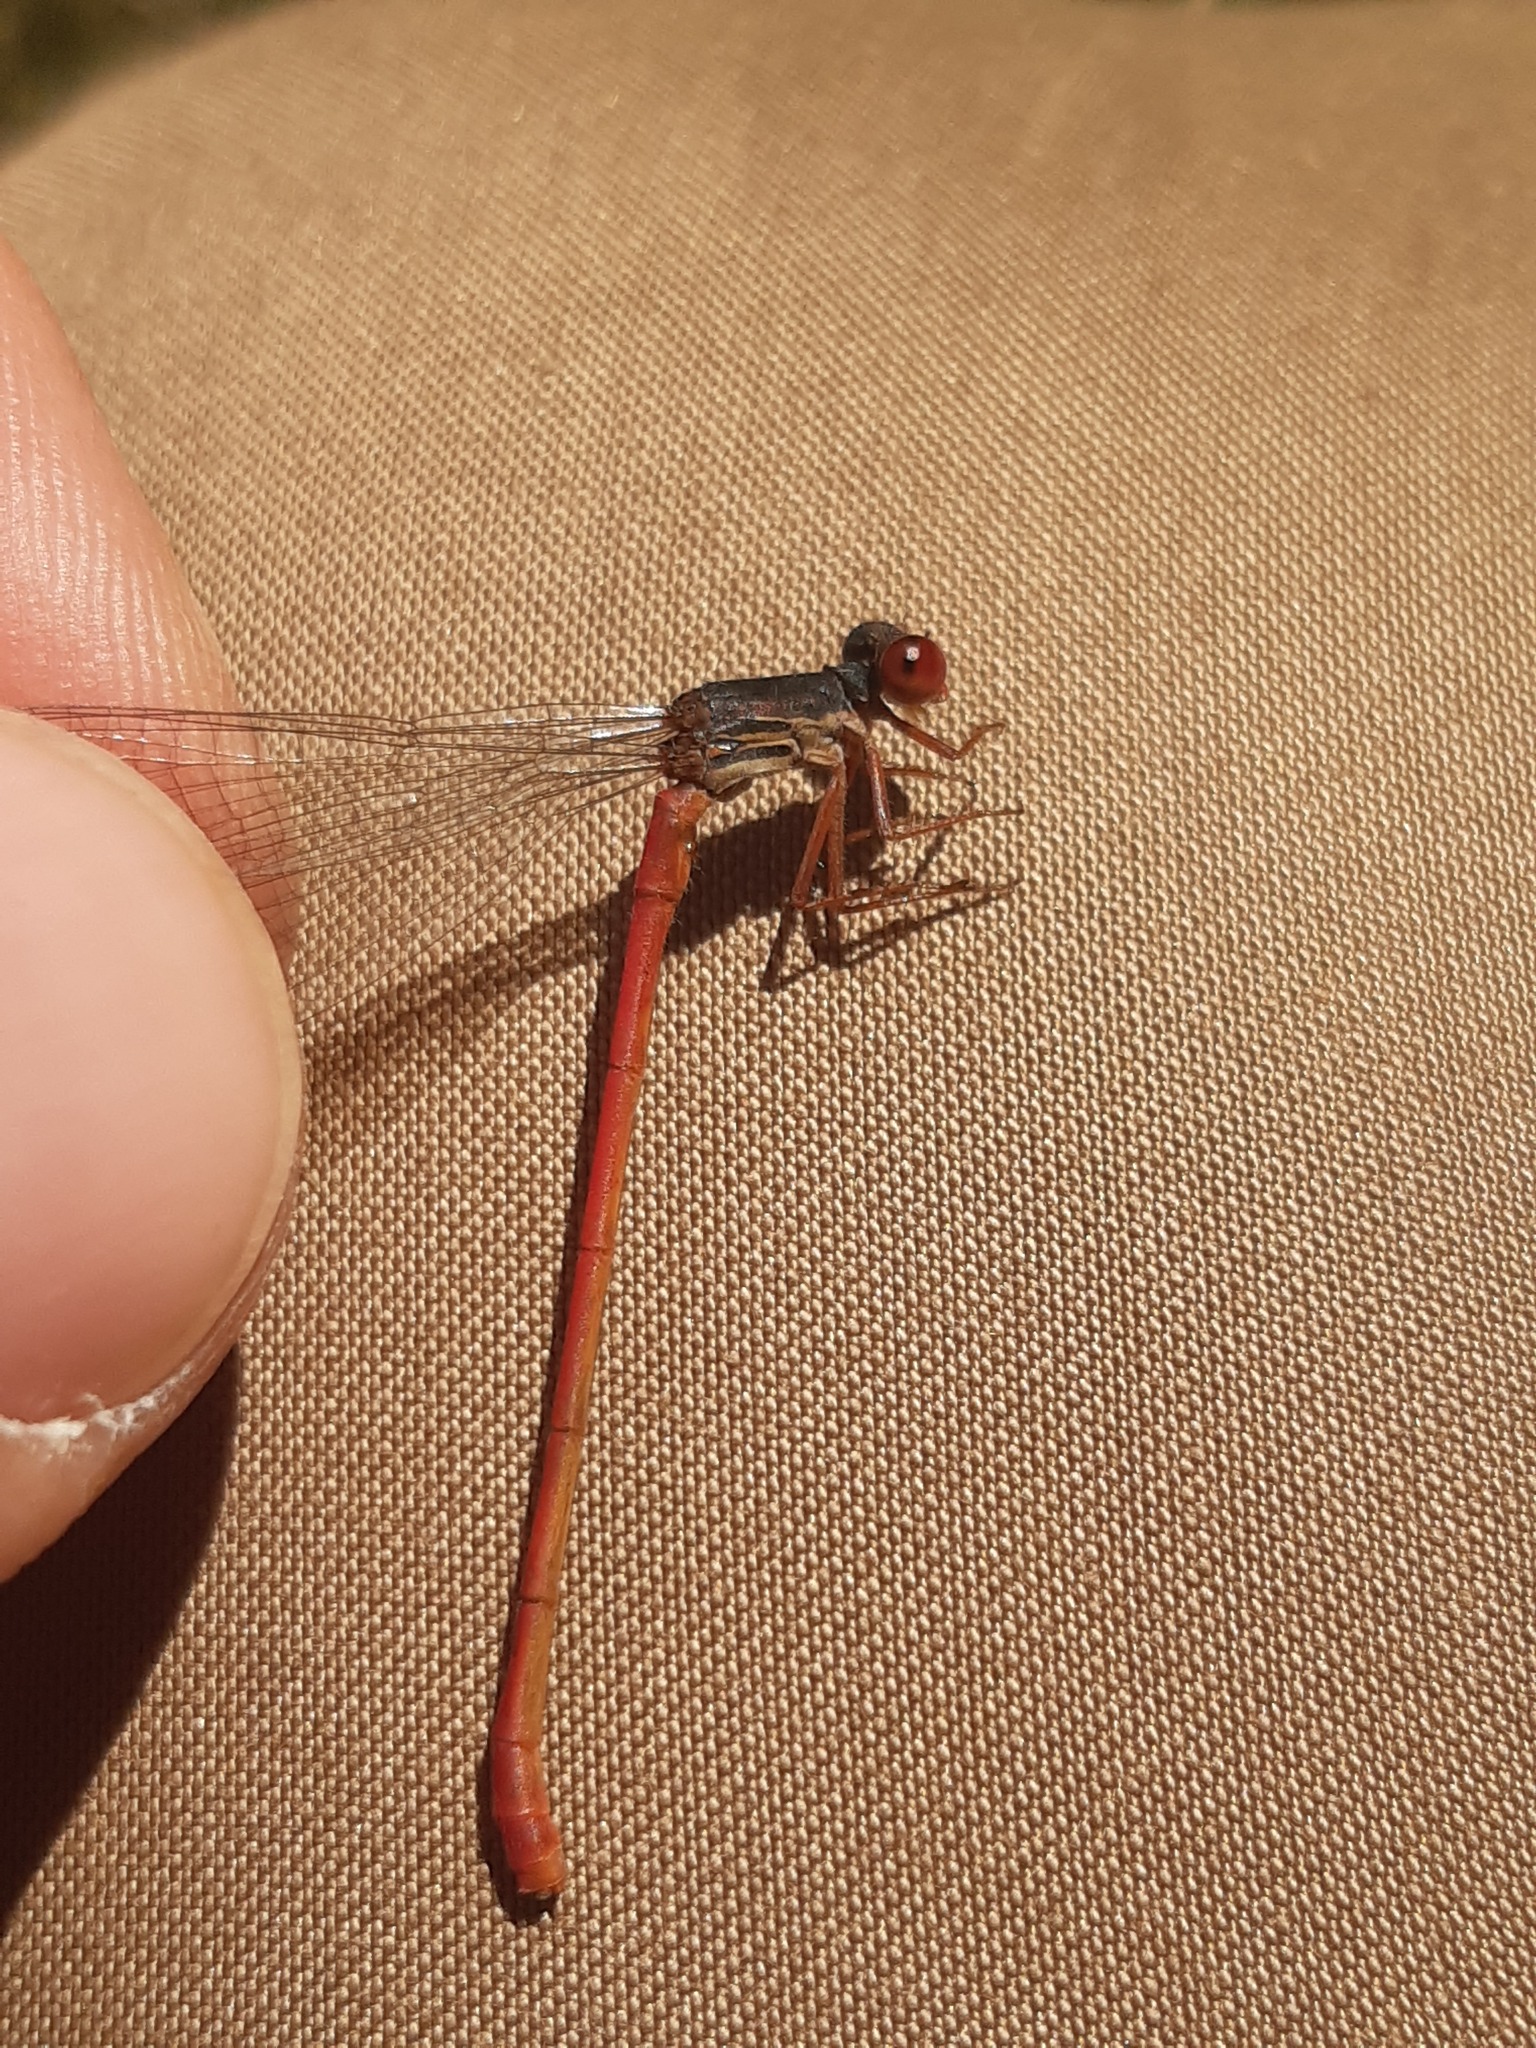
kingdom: Animalia
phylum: Arthropoda
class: Insecta
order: Odonata
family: Coenagrionidae
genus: Ceriagrion
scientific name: Ceriagrion tenellum
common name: Small red damselfly
